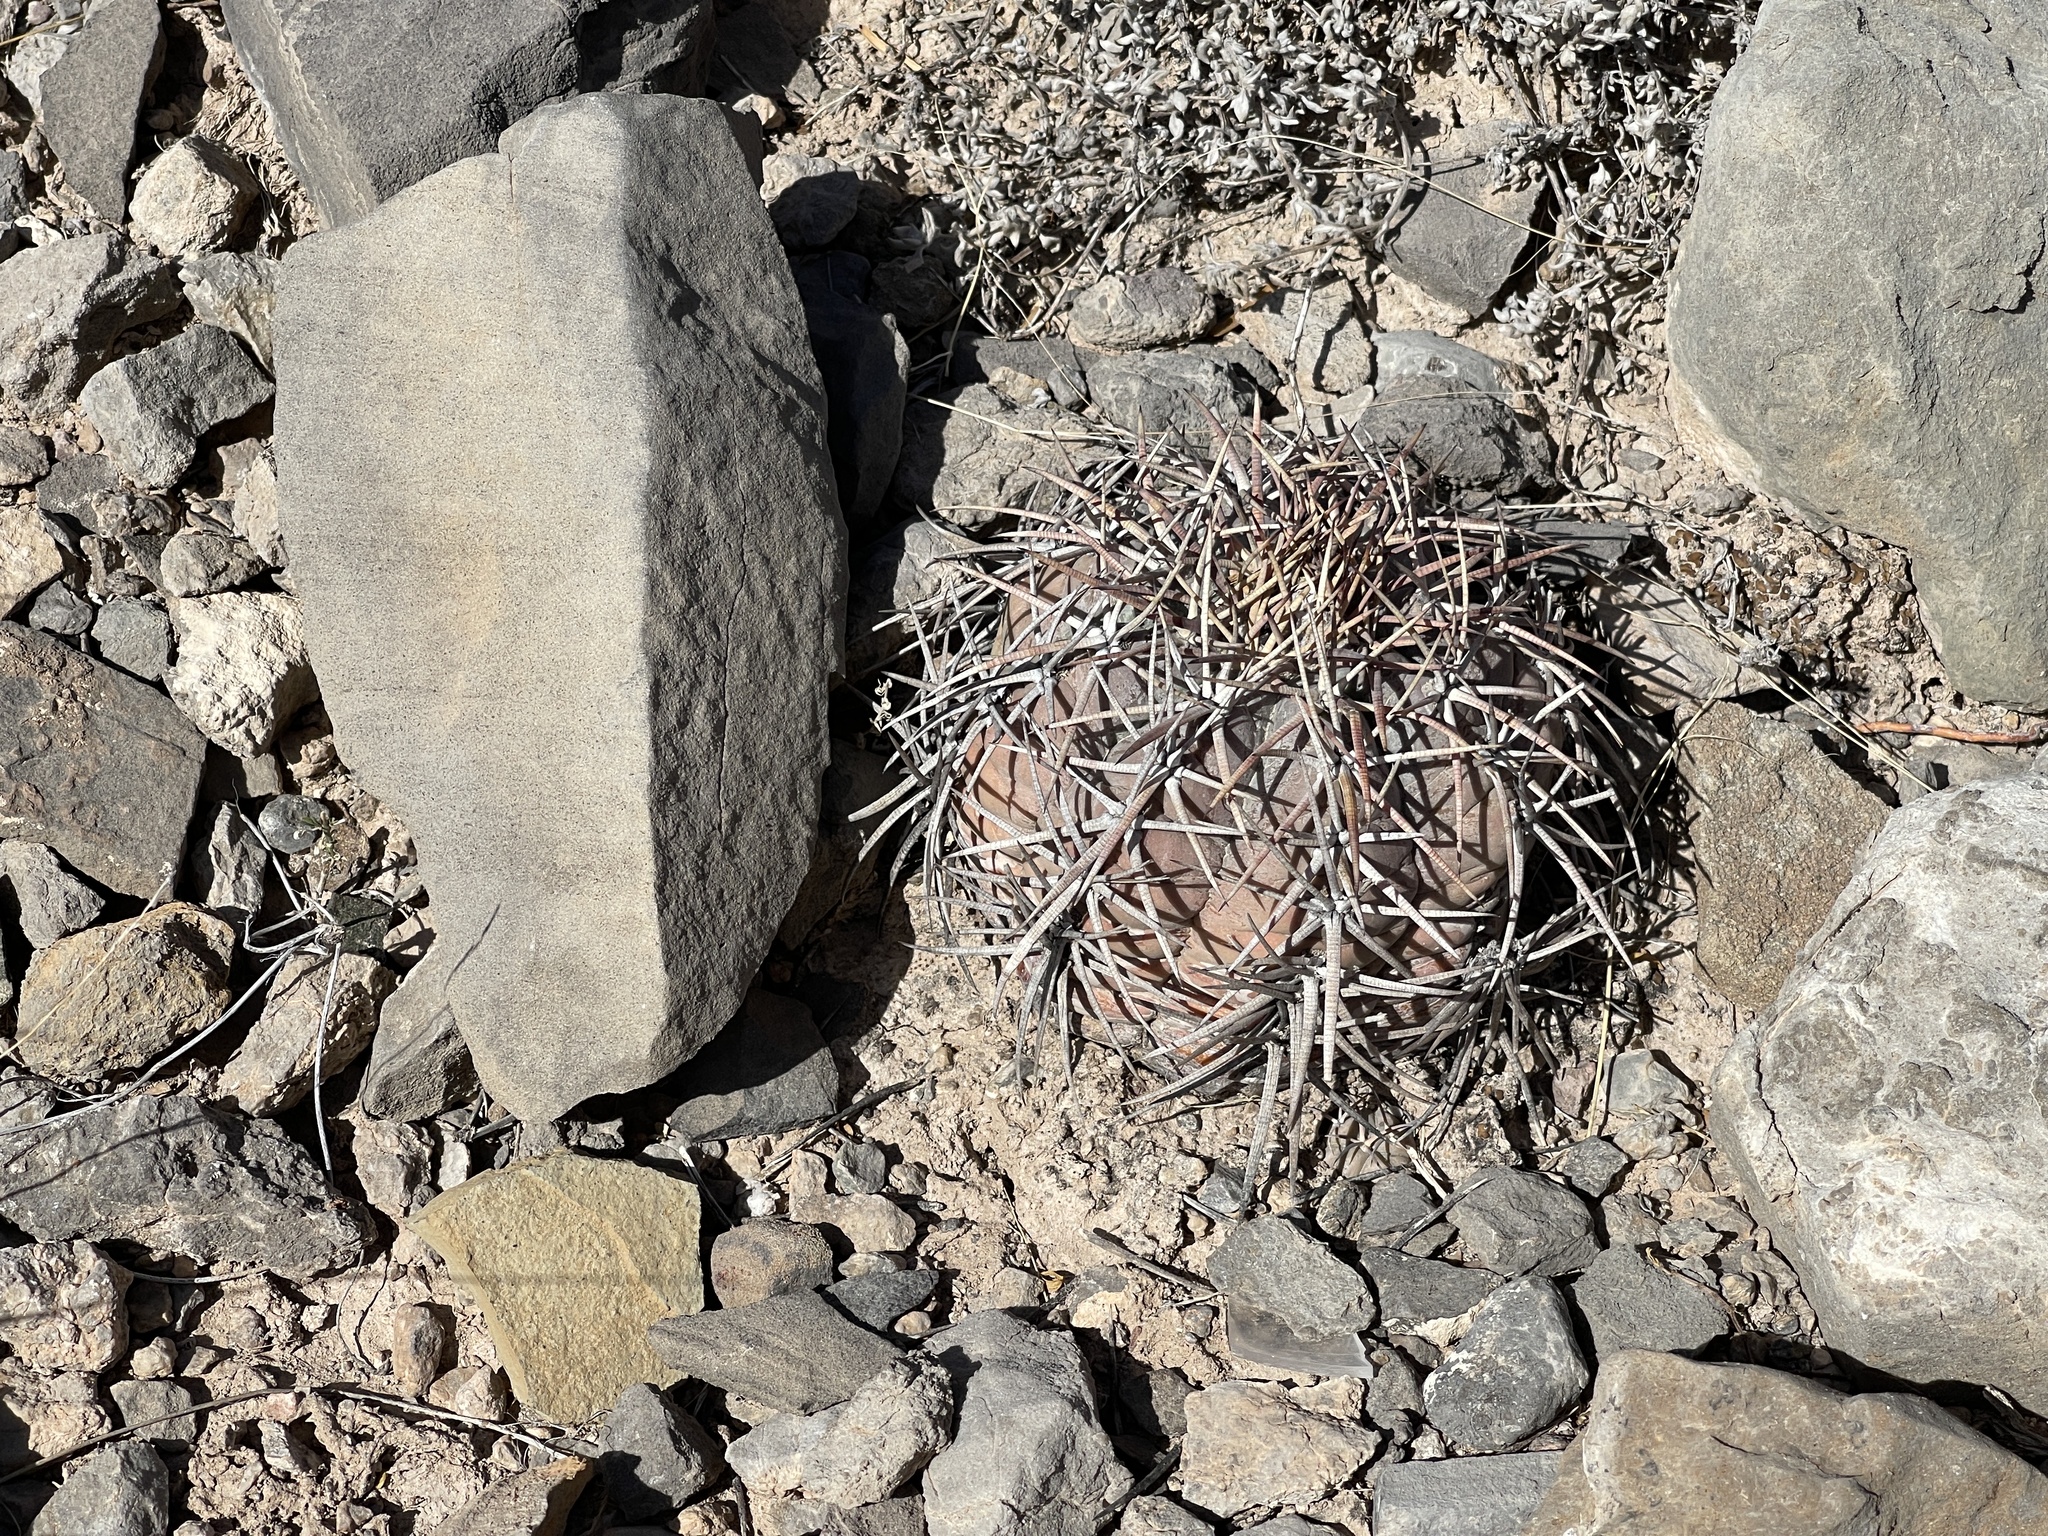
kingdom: Plantae
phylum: Tracheophyta
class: Magnoliopsida
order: Caryophyllales
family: Cactaceae
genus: Echinocactus
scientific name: Echinocactus horizonthalonius
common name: Devilshead
